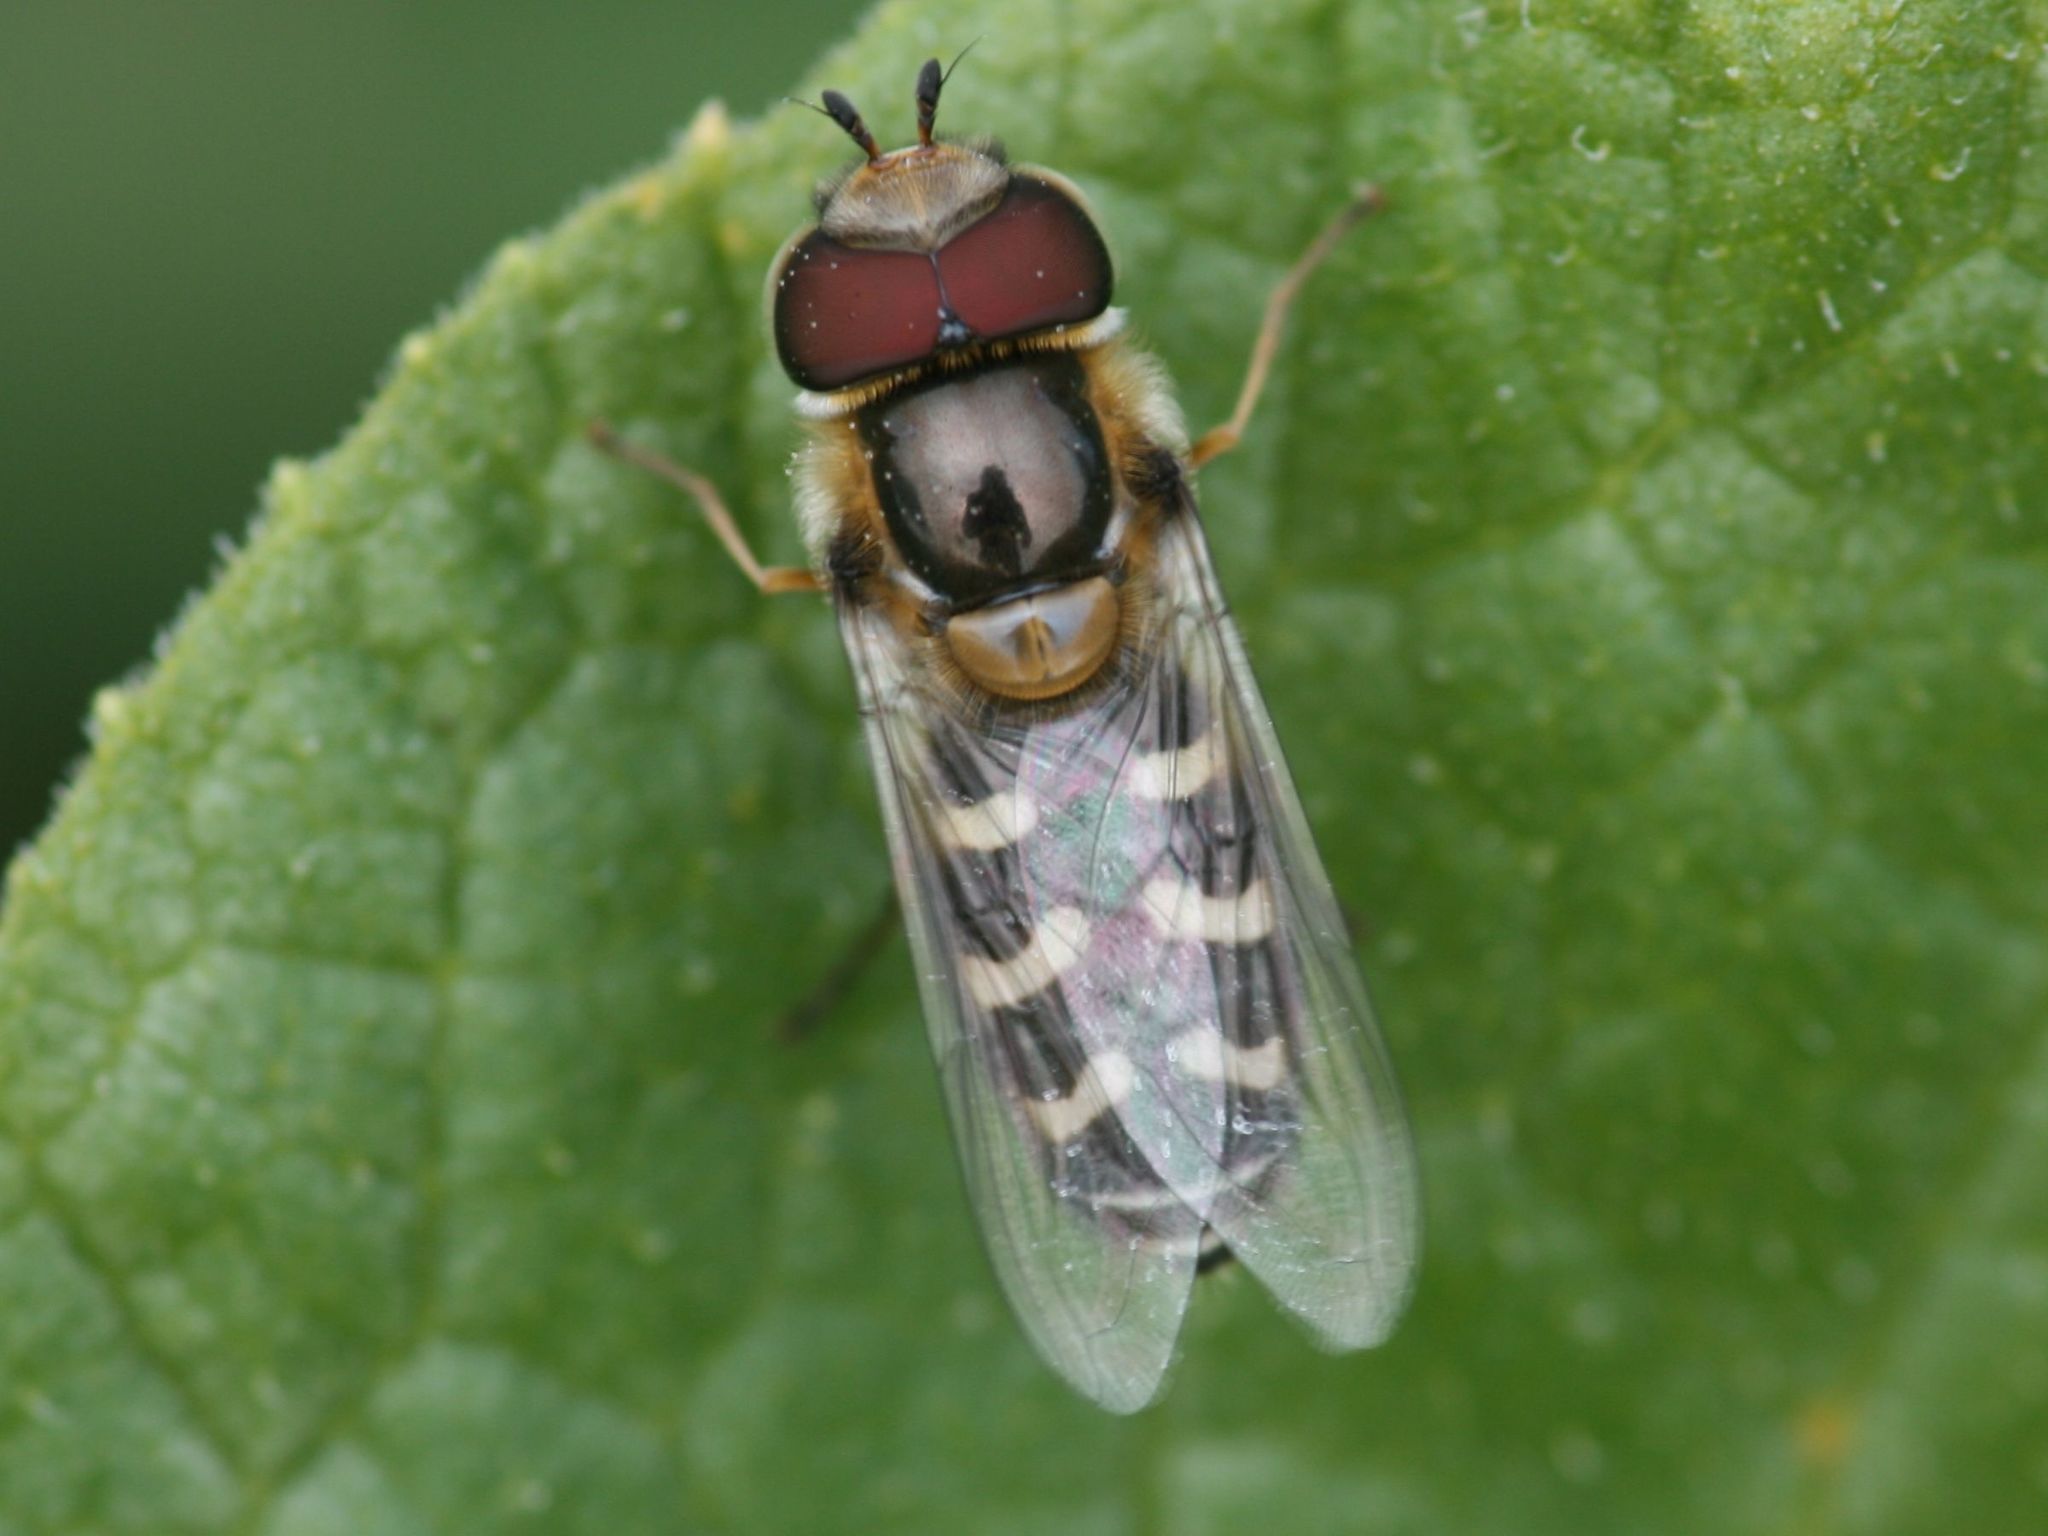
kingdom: Animalia
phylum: Arthropoda
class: Insecta
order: Diptera
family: Syrphidae
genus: Scaeva
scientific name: Scaeva pyrastri
